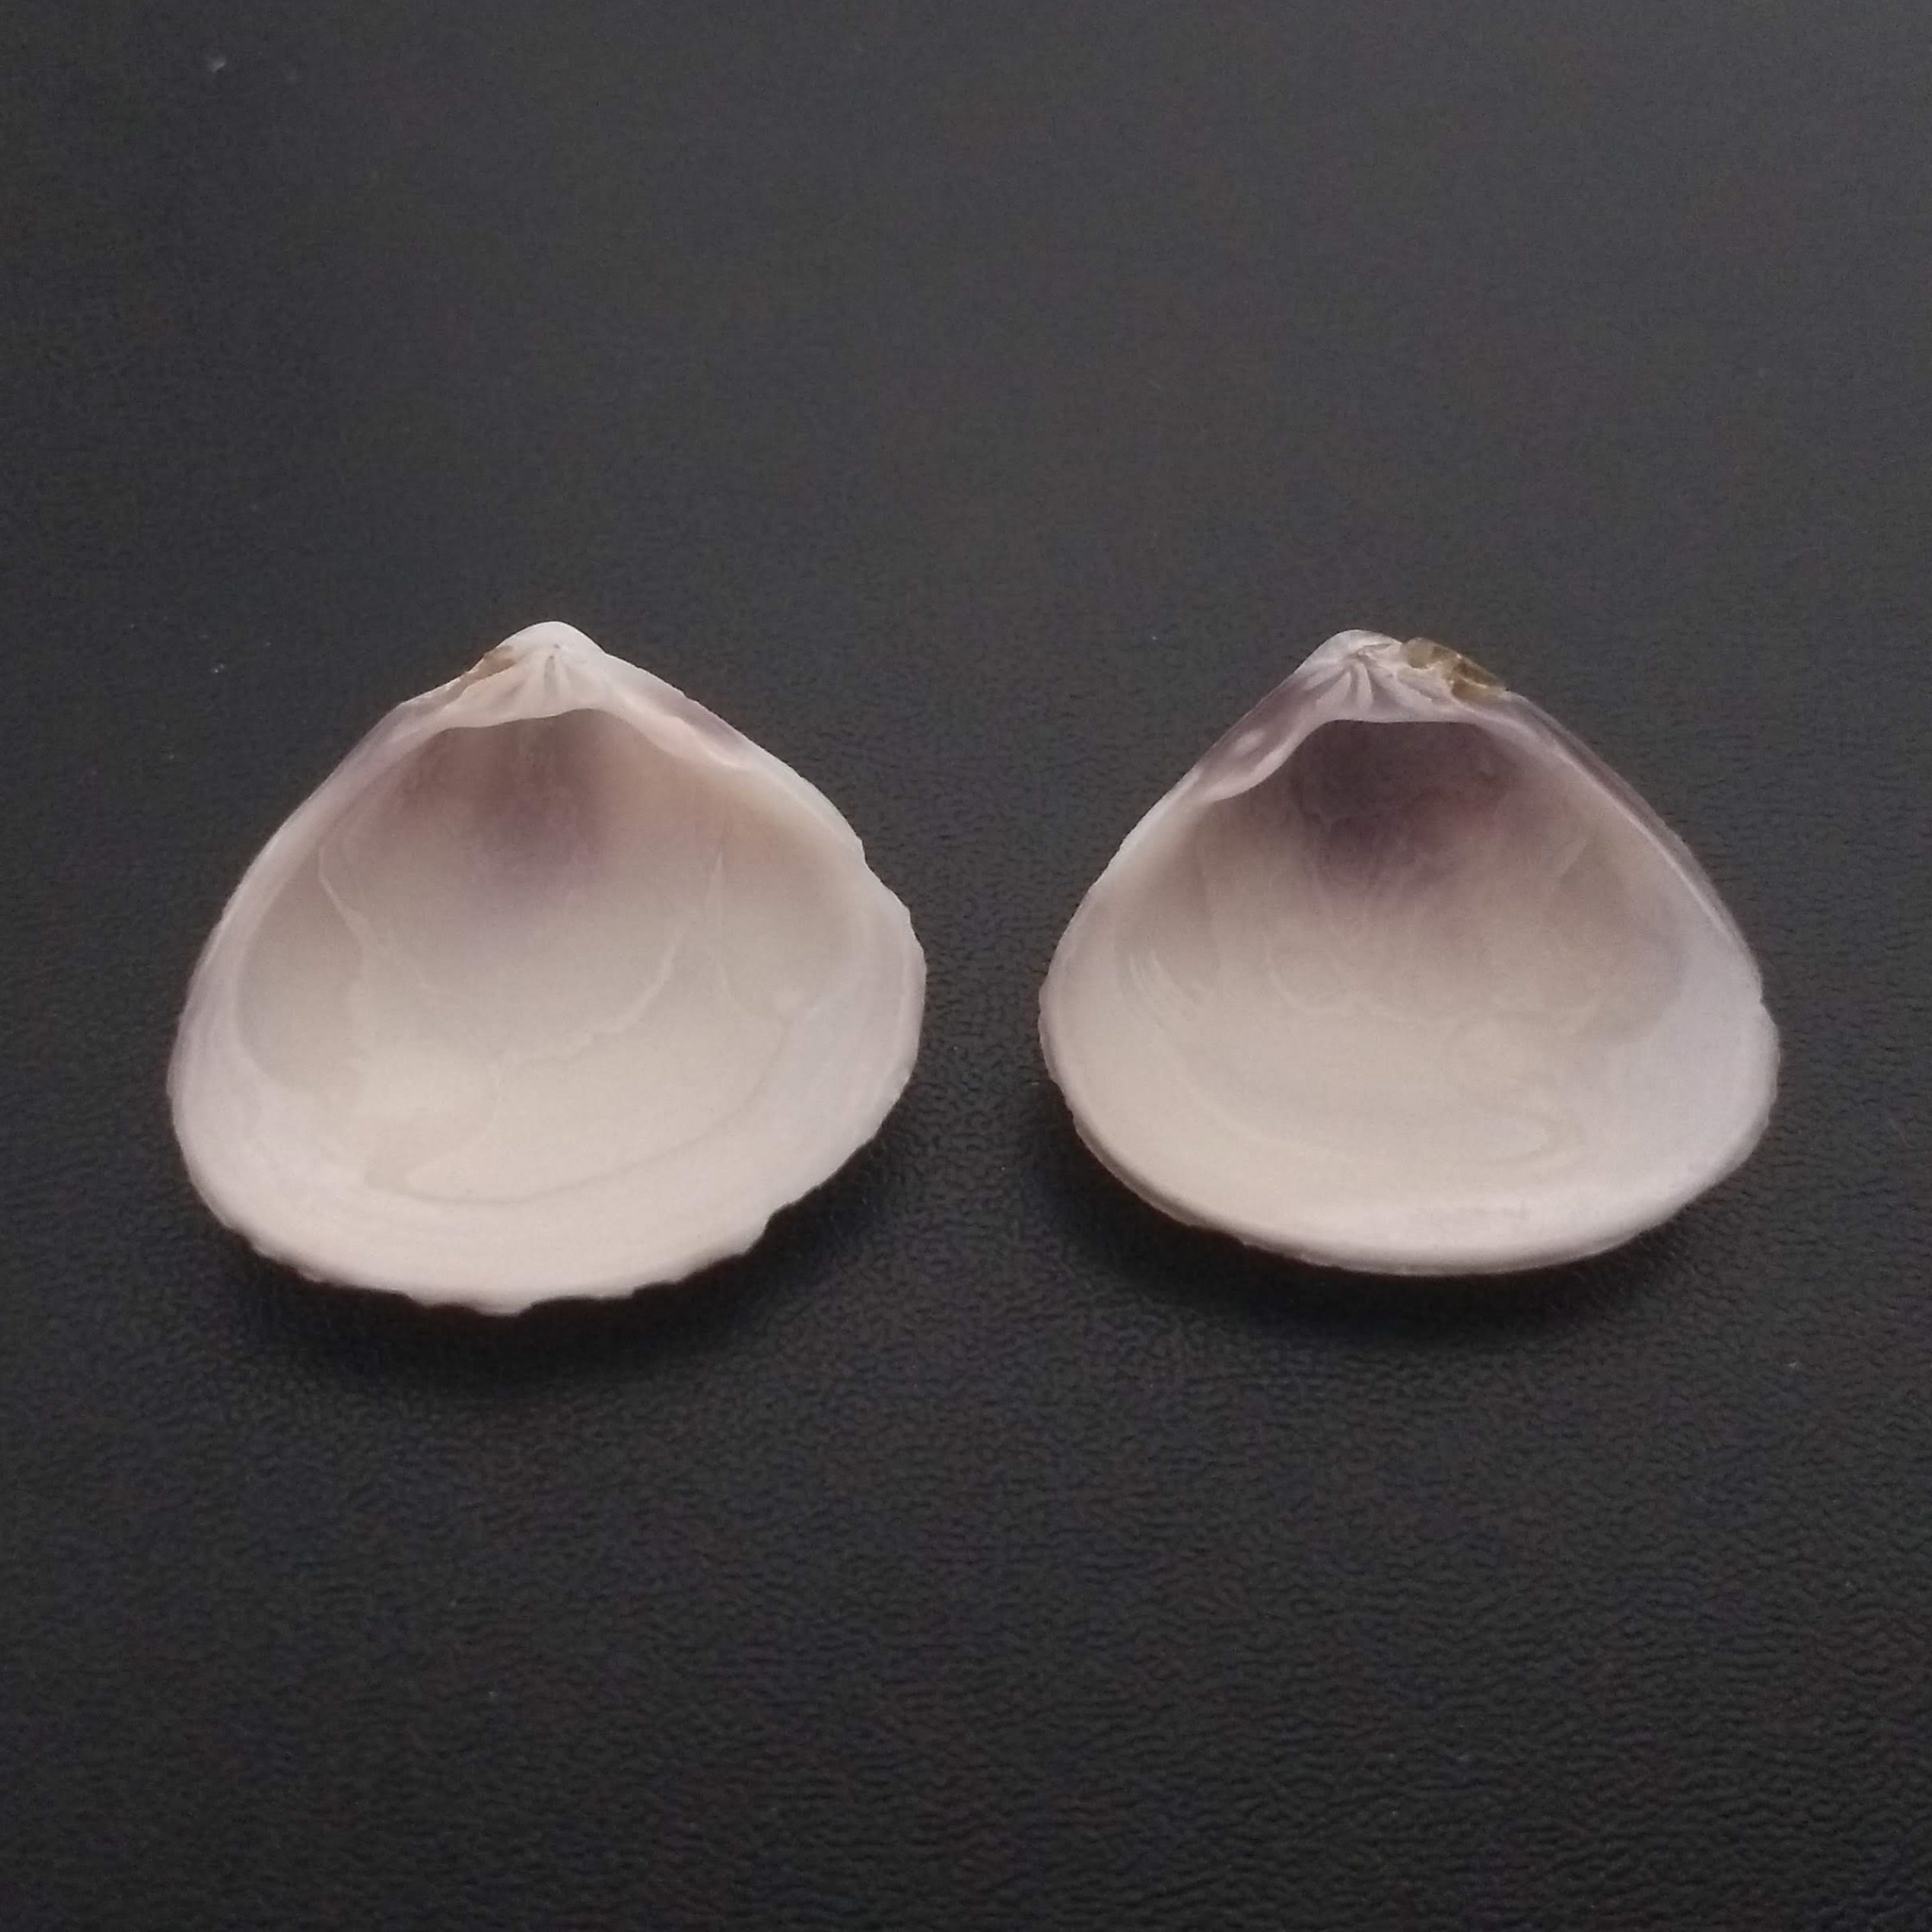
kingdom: Animalia
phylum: Mollusca
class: Bivalvia
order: Venerida
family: Veneridae
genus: Tivela
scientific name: Tivela mactroides
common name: Trigonal tivela
